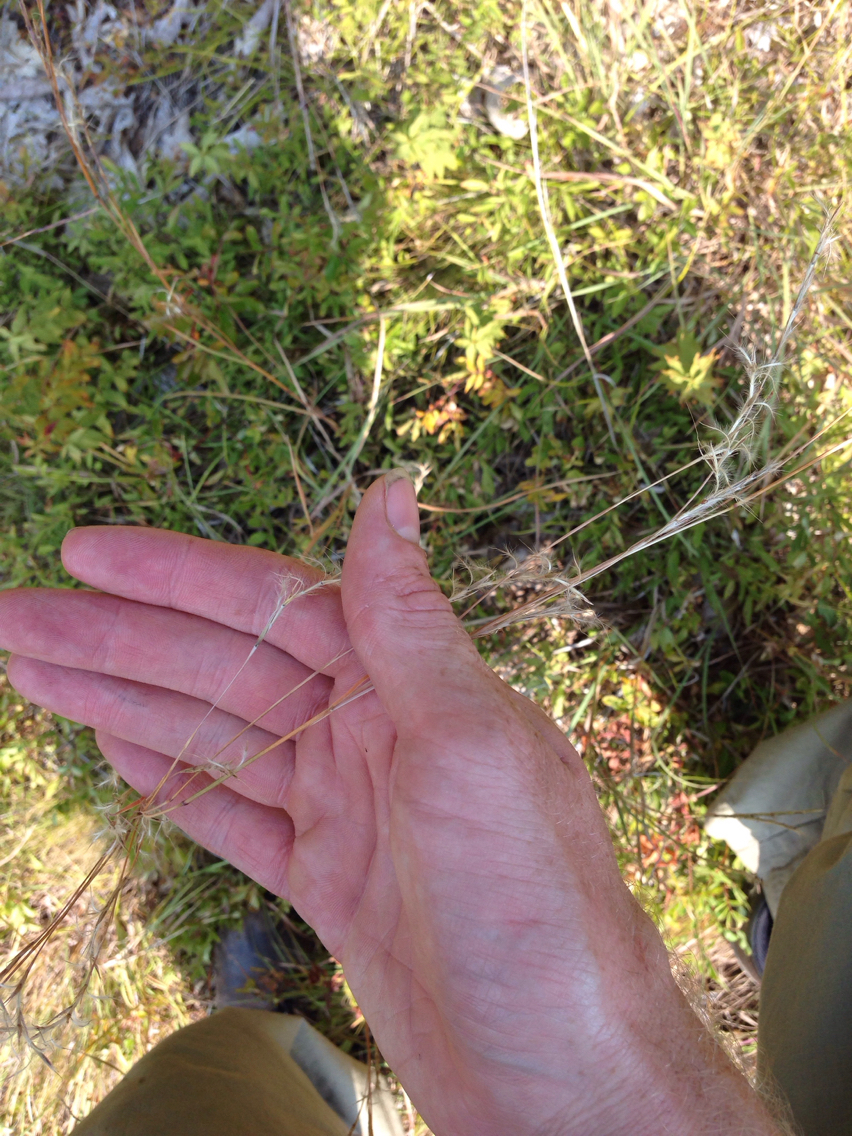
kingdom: Plantae
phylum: Tracheophyta
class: Liliopsida
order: Poales
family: Poaceae
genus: Schizachyrium
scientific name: Schizachyrium scoparium
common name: Little bluestem
